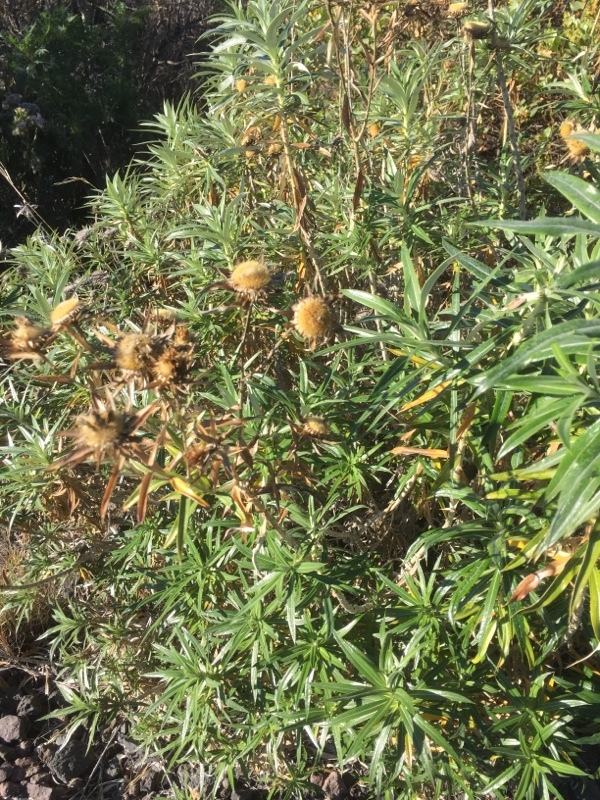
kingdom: Plantae
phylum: Tracheophyta
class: Magnoliopsida
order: Asterales
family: Asteraceae
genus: Carlina
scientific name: Carlina salicifolia
